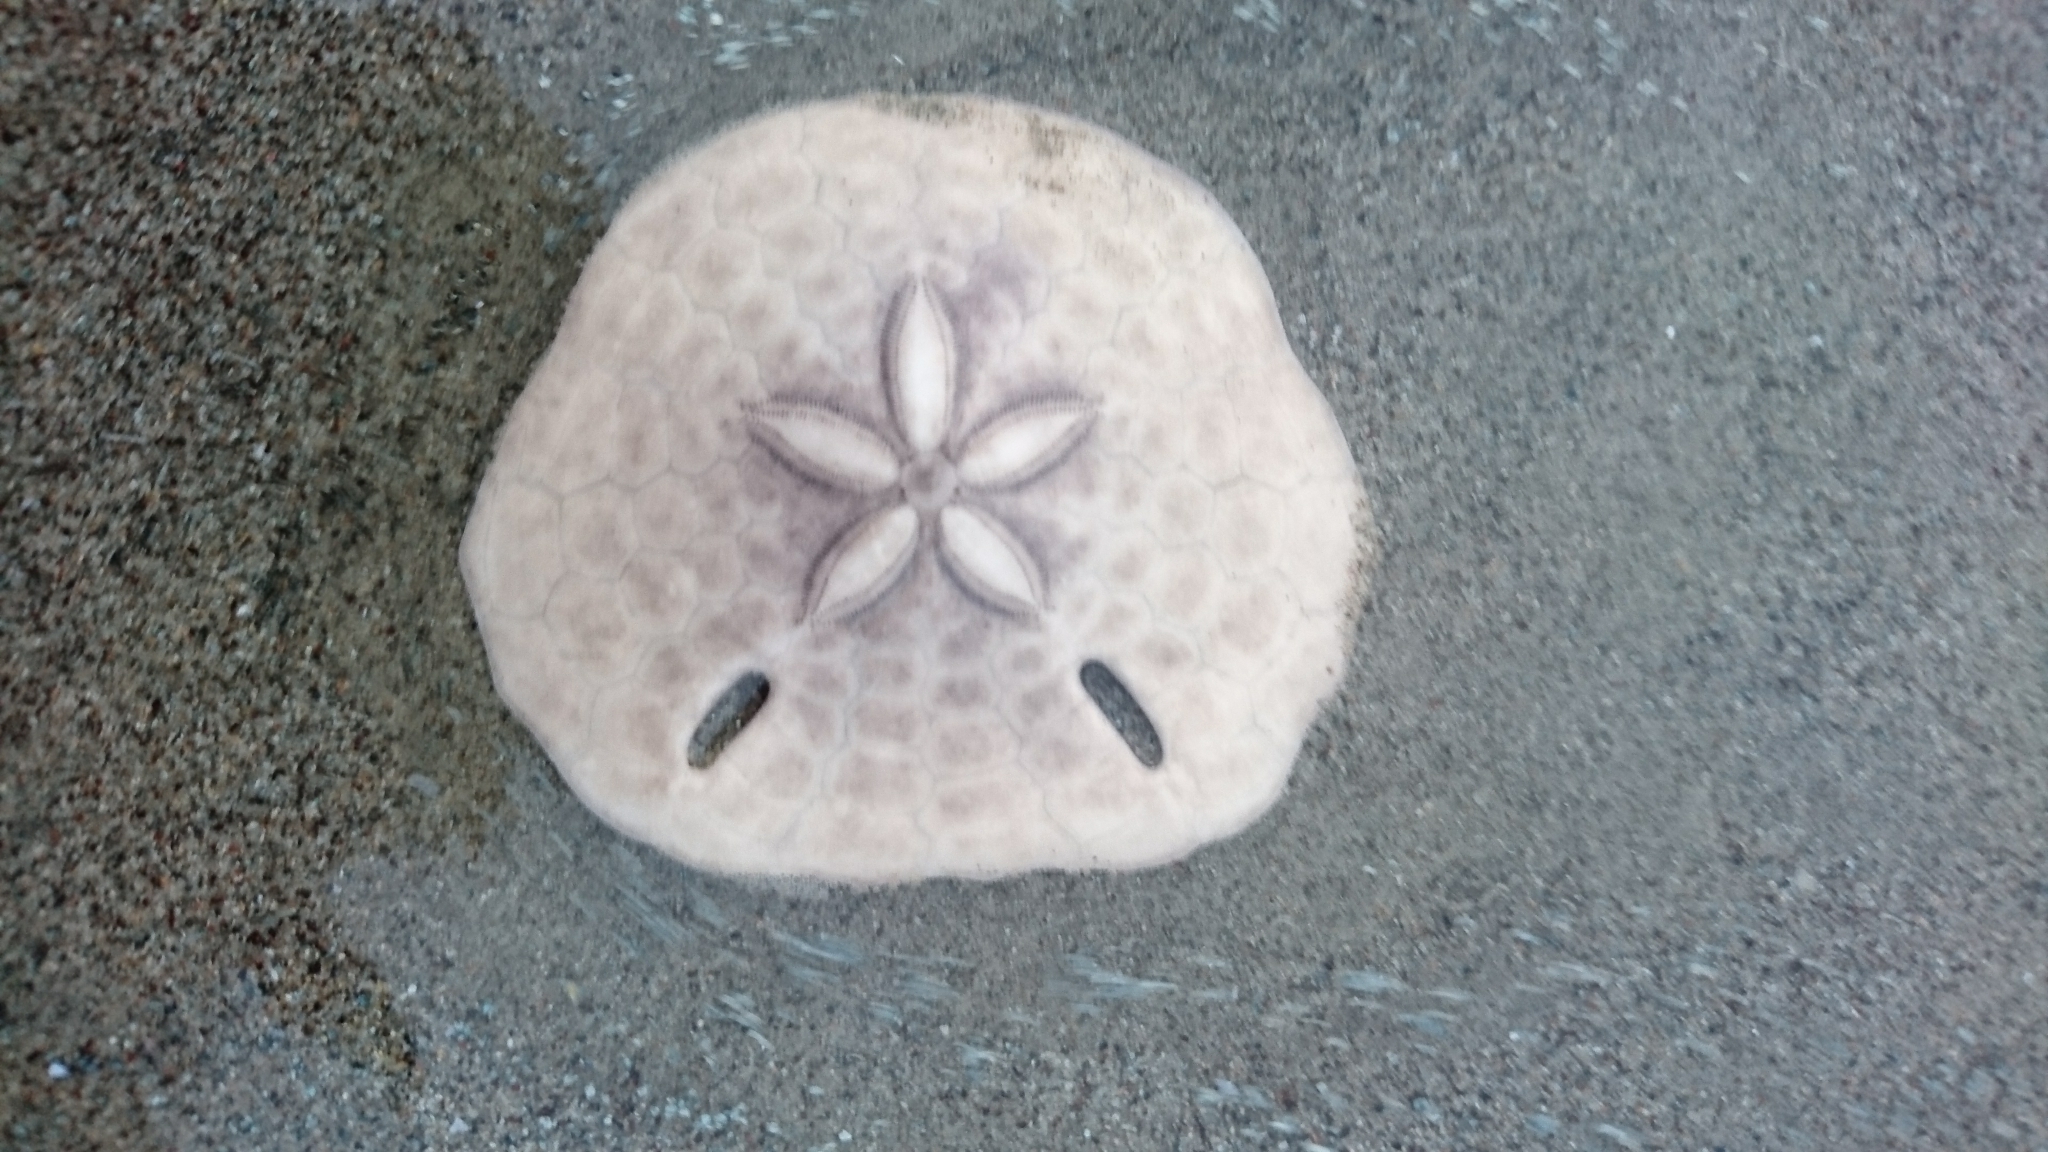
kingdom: Animalia
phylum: Echinodermata
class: Echinoidea
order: Echinolampadacea
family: Astriclypeidae
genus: Echinodiscus
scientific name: Echinodiscus
